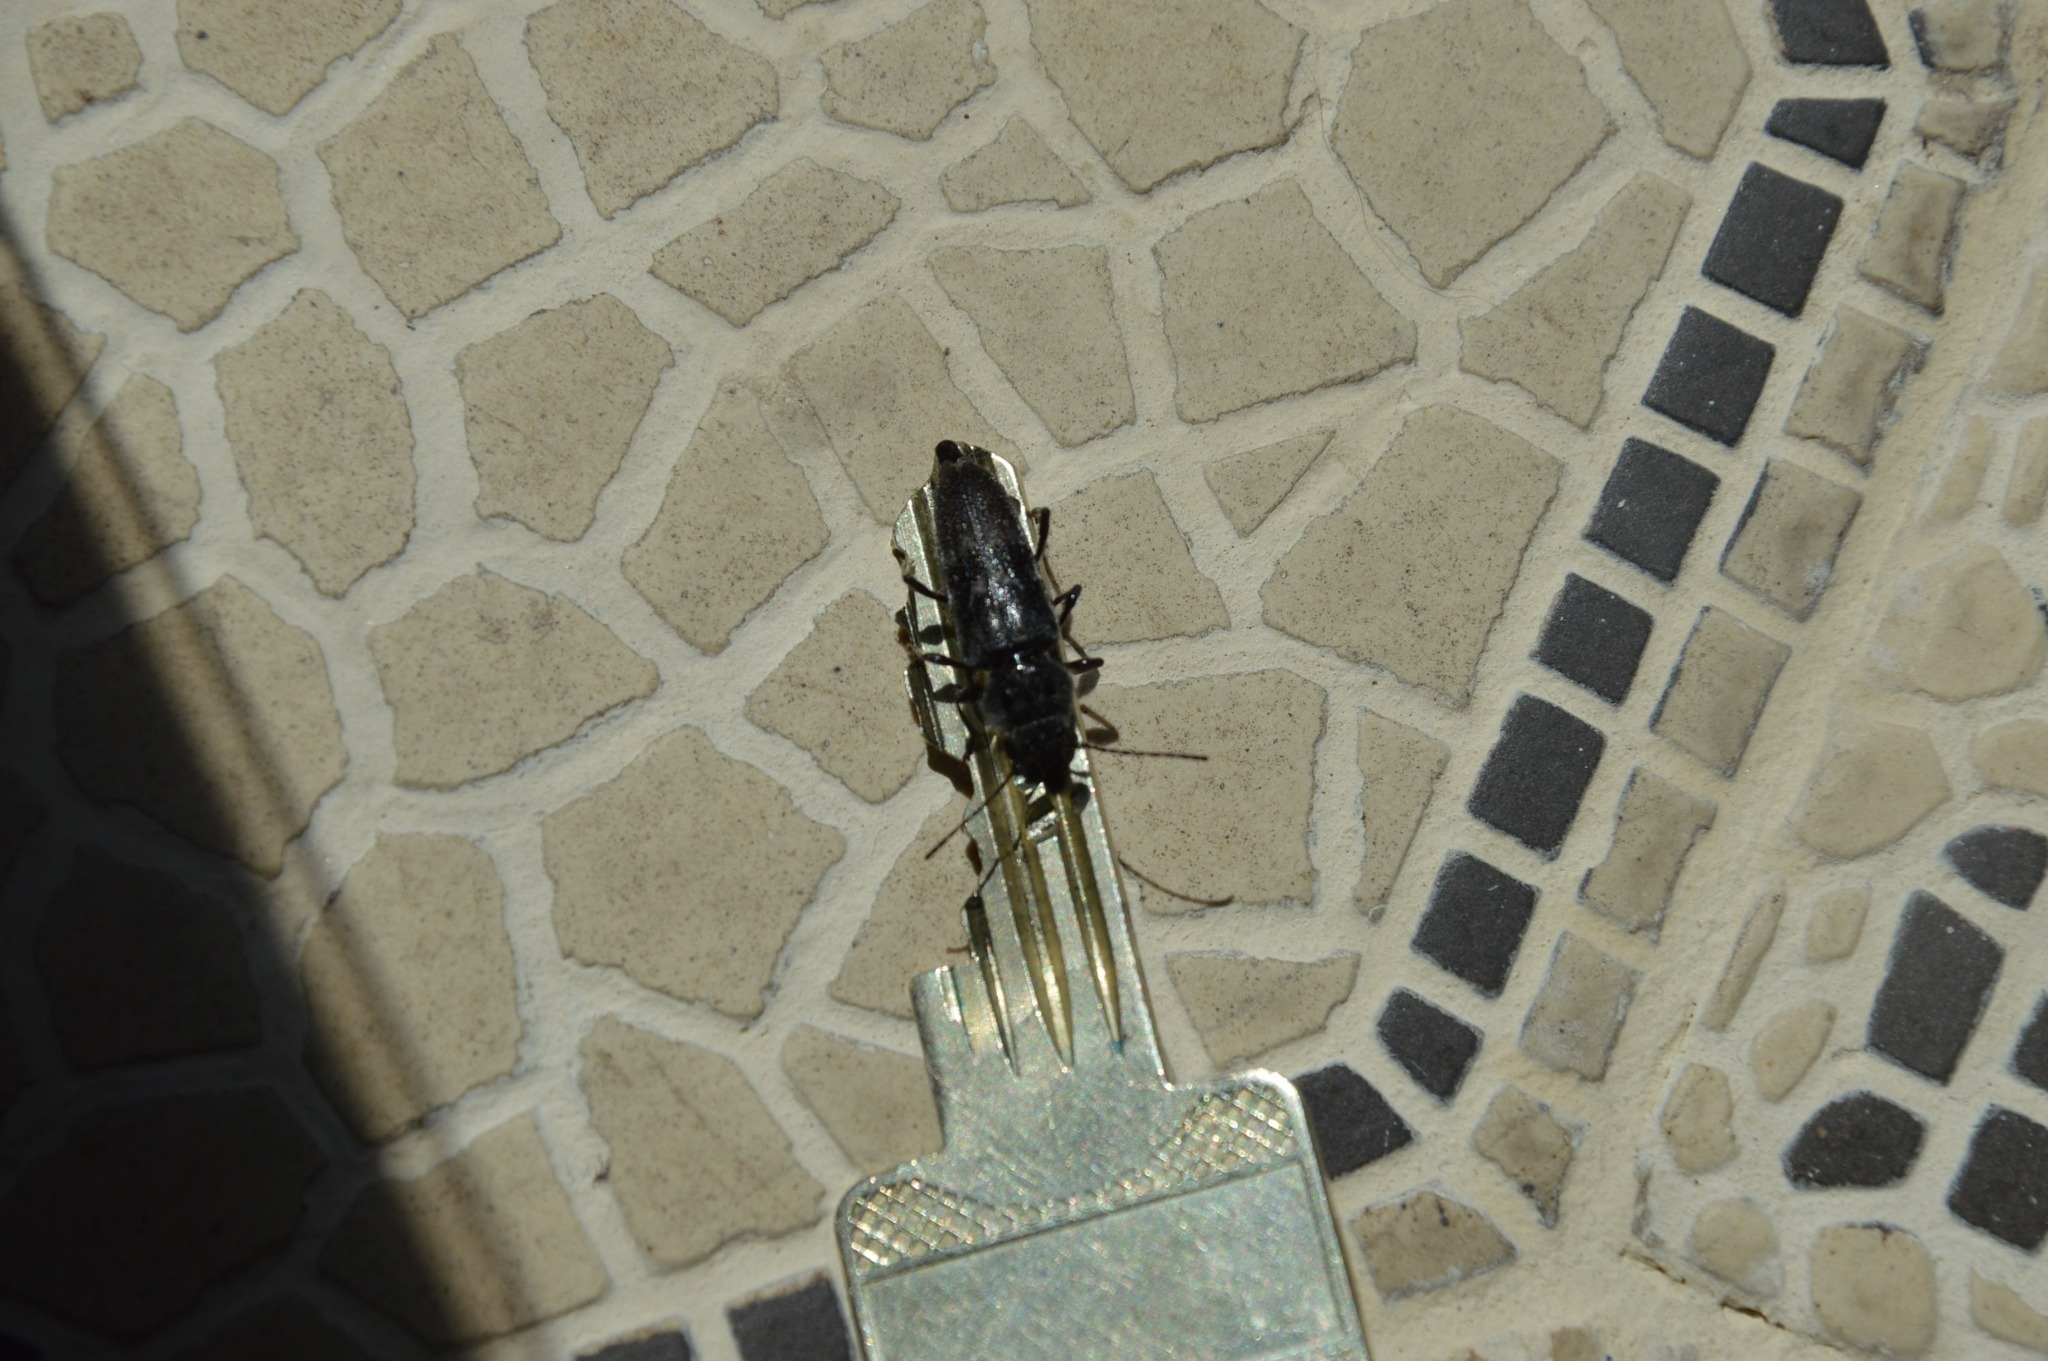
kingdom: Animalia
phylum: Arthropoda
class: Insecta
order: Coleoptera
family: Cerambycidae
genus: Hylotrupes
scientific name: Hylotrupes bajulus
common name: Old house borer
